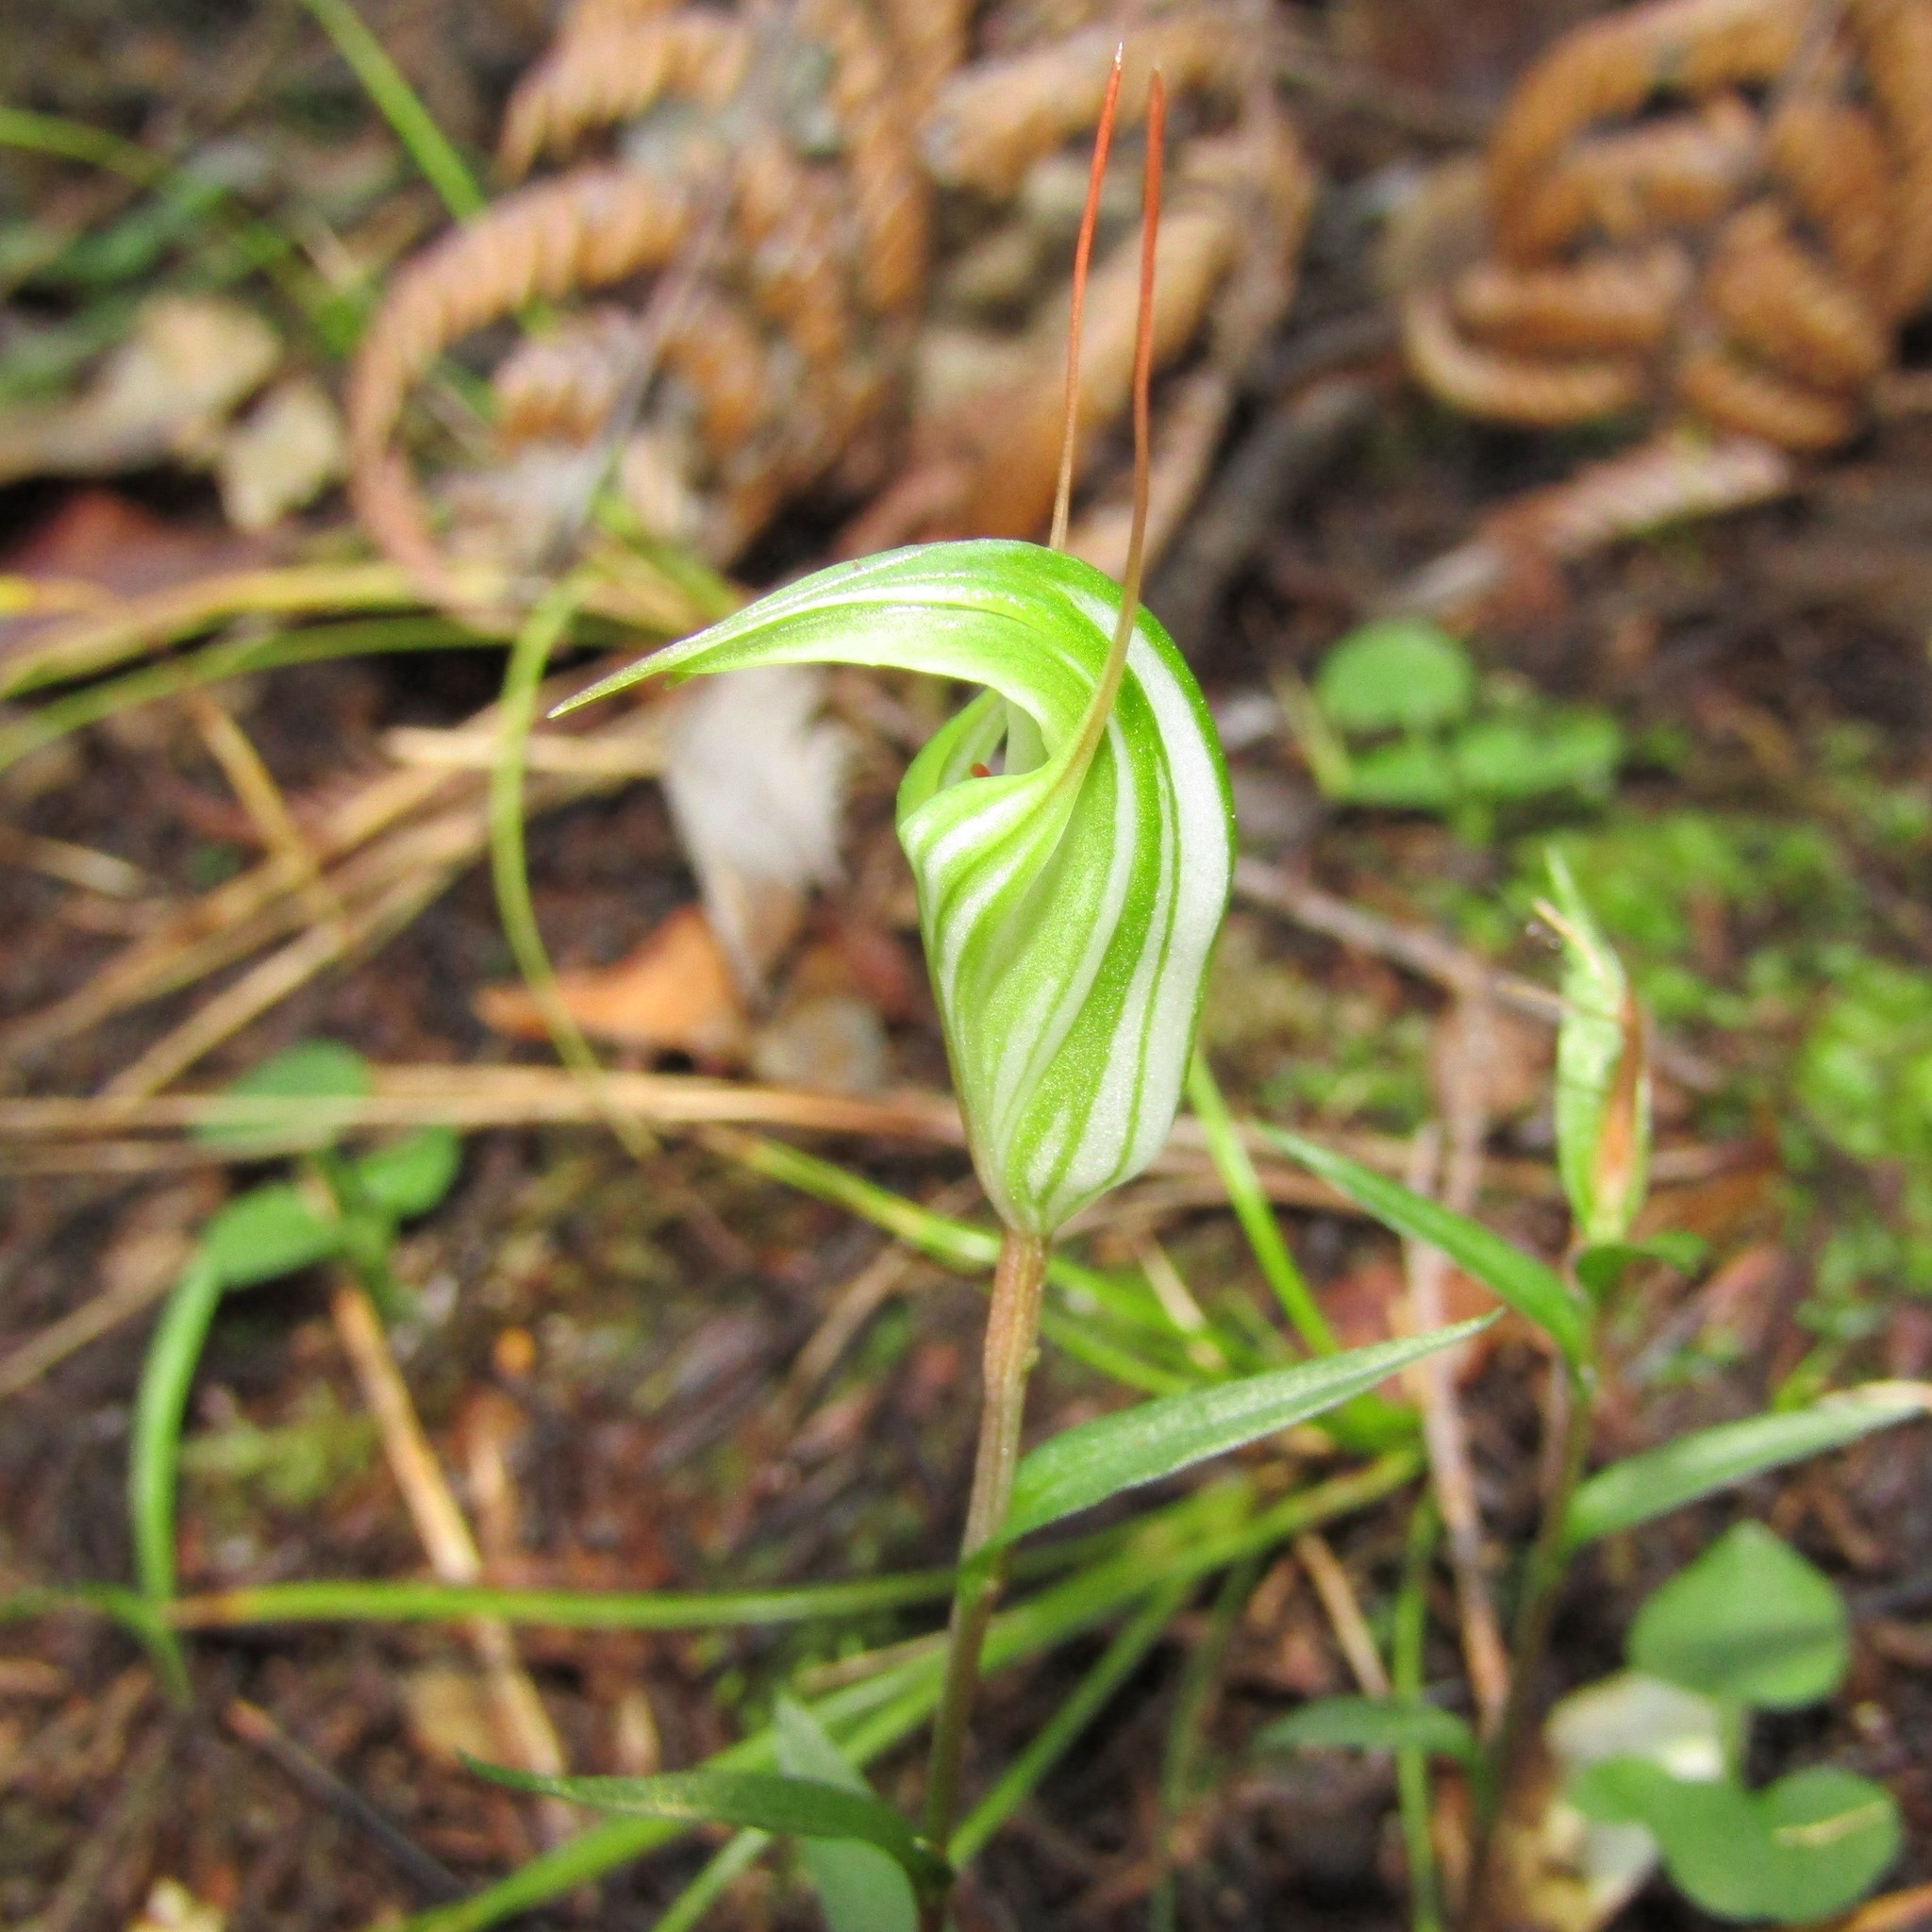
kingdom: Plantae
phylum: Tracheophyta
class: Liliopsida
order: Asparagales
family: Orchidaceae
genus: Pterostylis
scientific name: Pterostylis alobula
